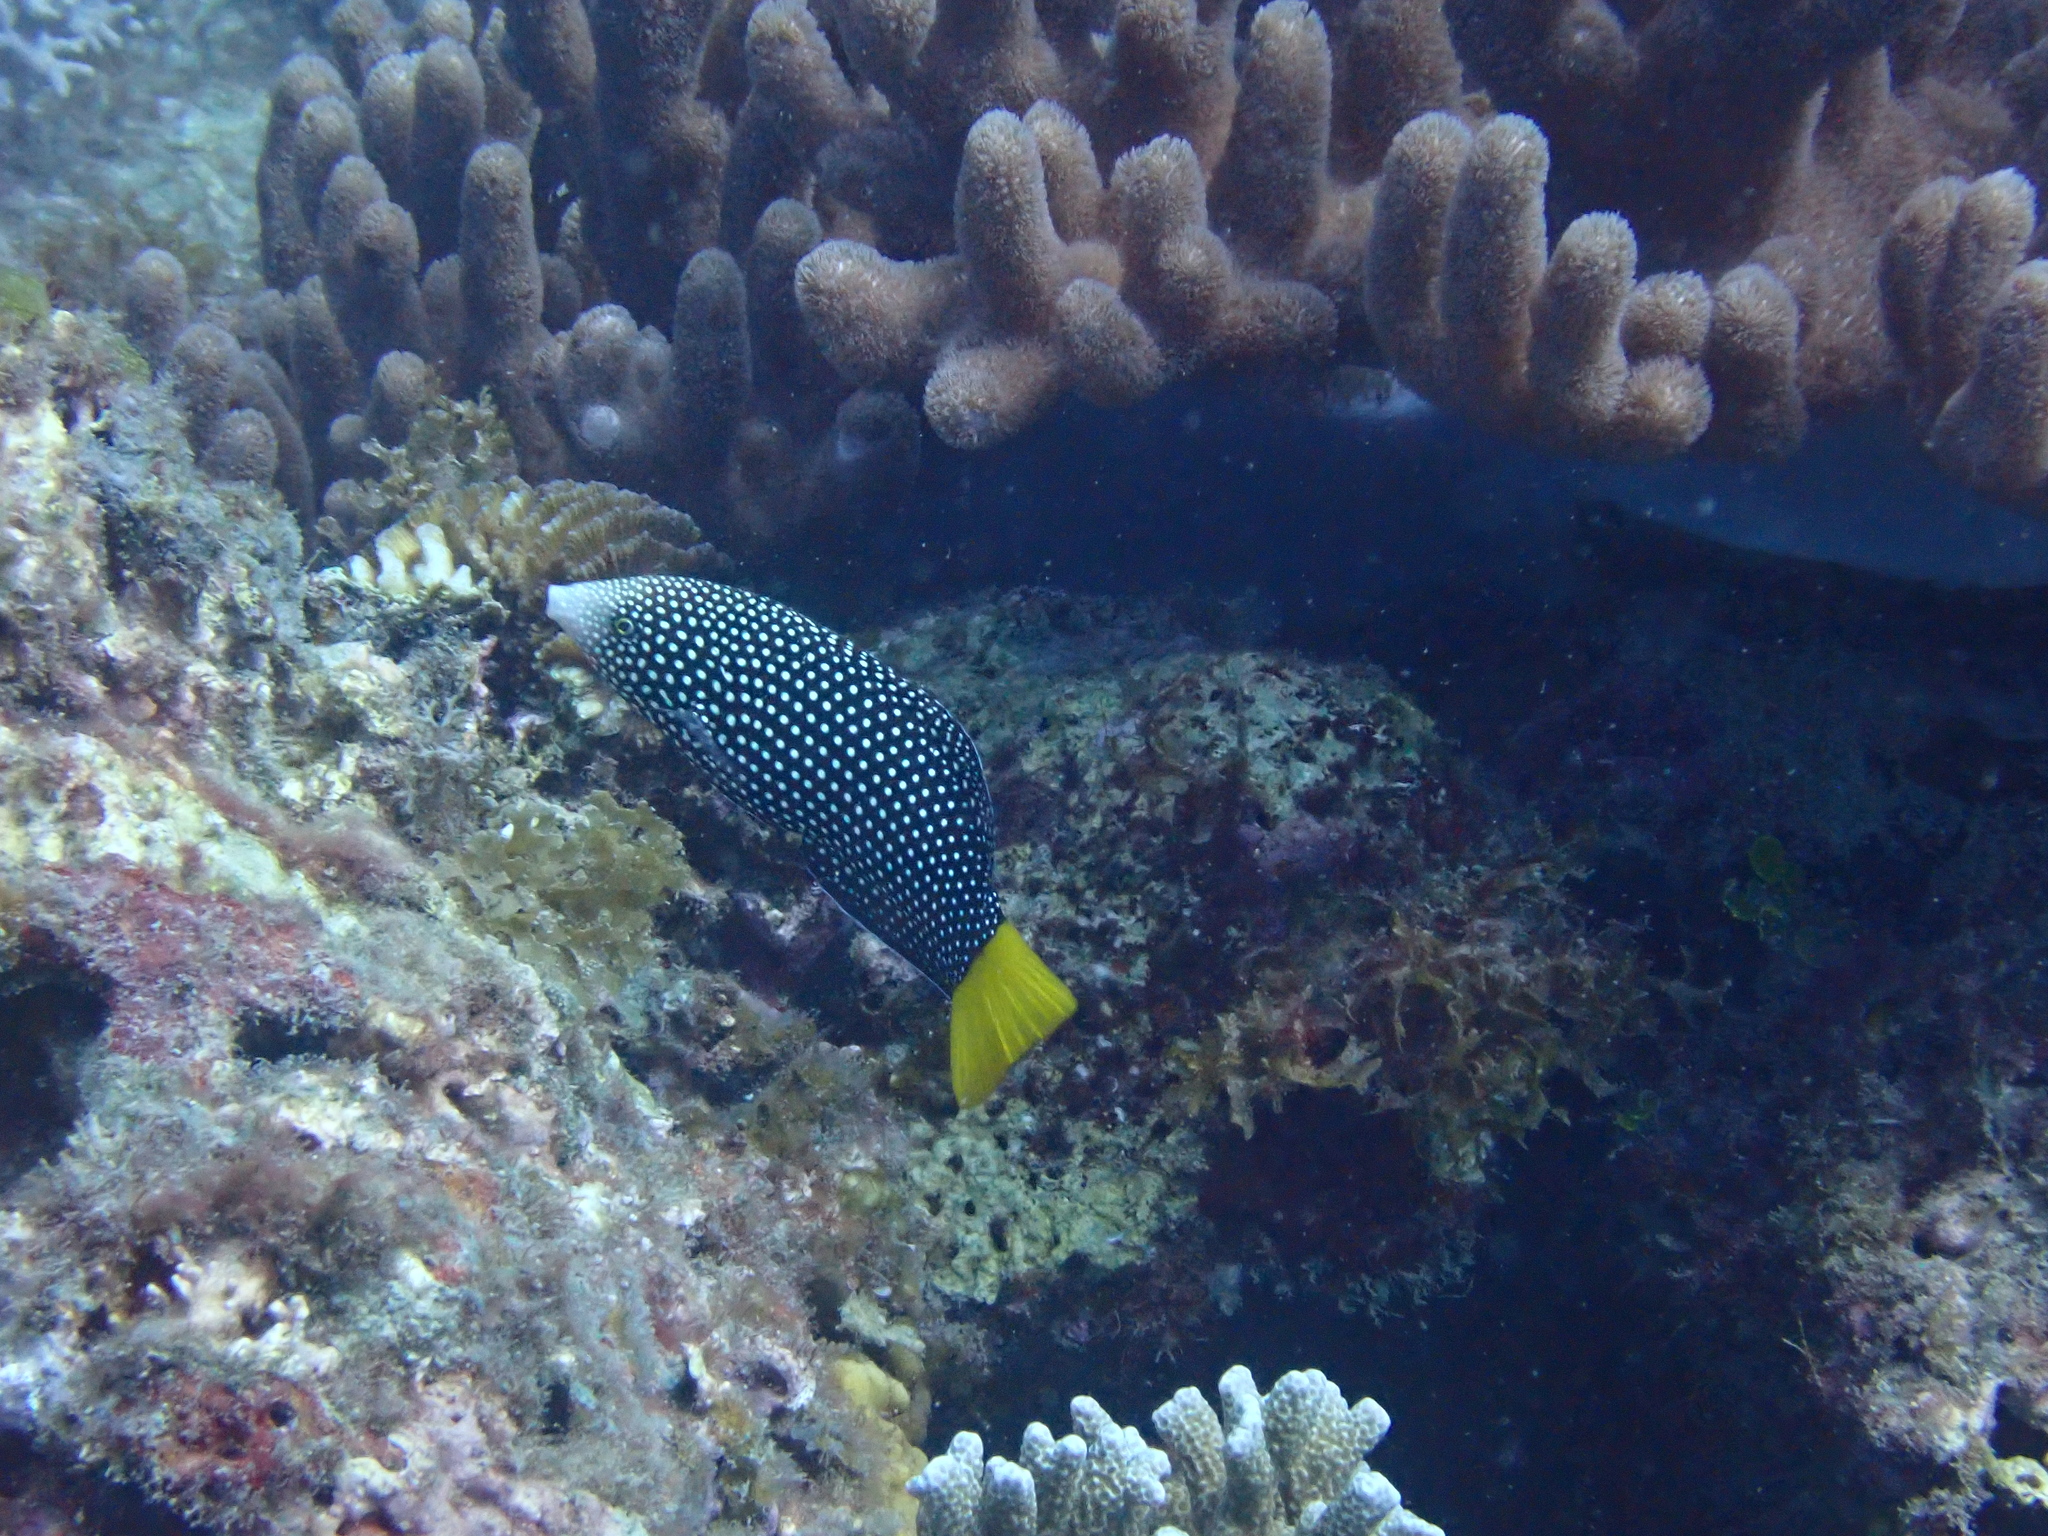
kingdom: Animalia
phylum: Chordata
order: Perciformes
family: Labridae
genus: Anampses
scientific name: Anampses meleagrides
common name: Yellowtail wrasse
